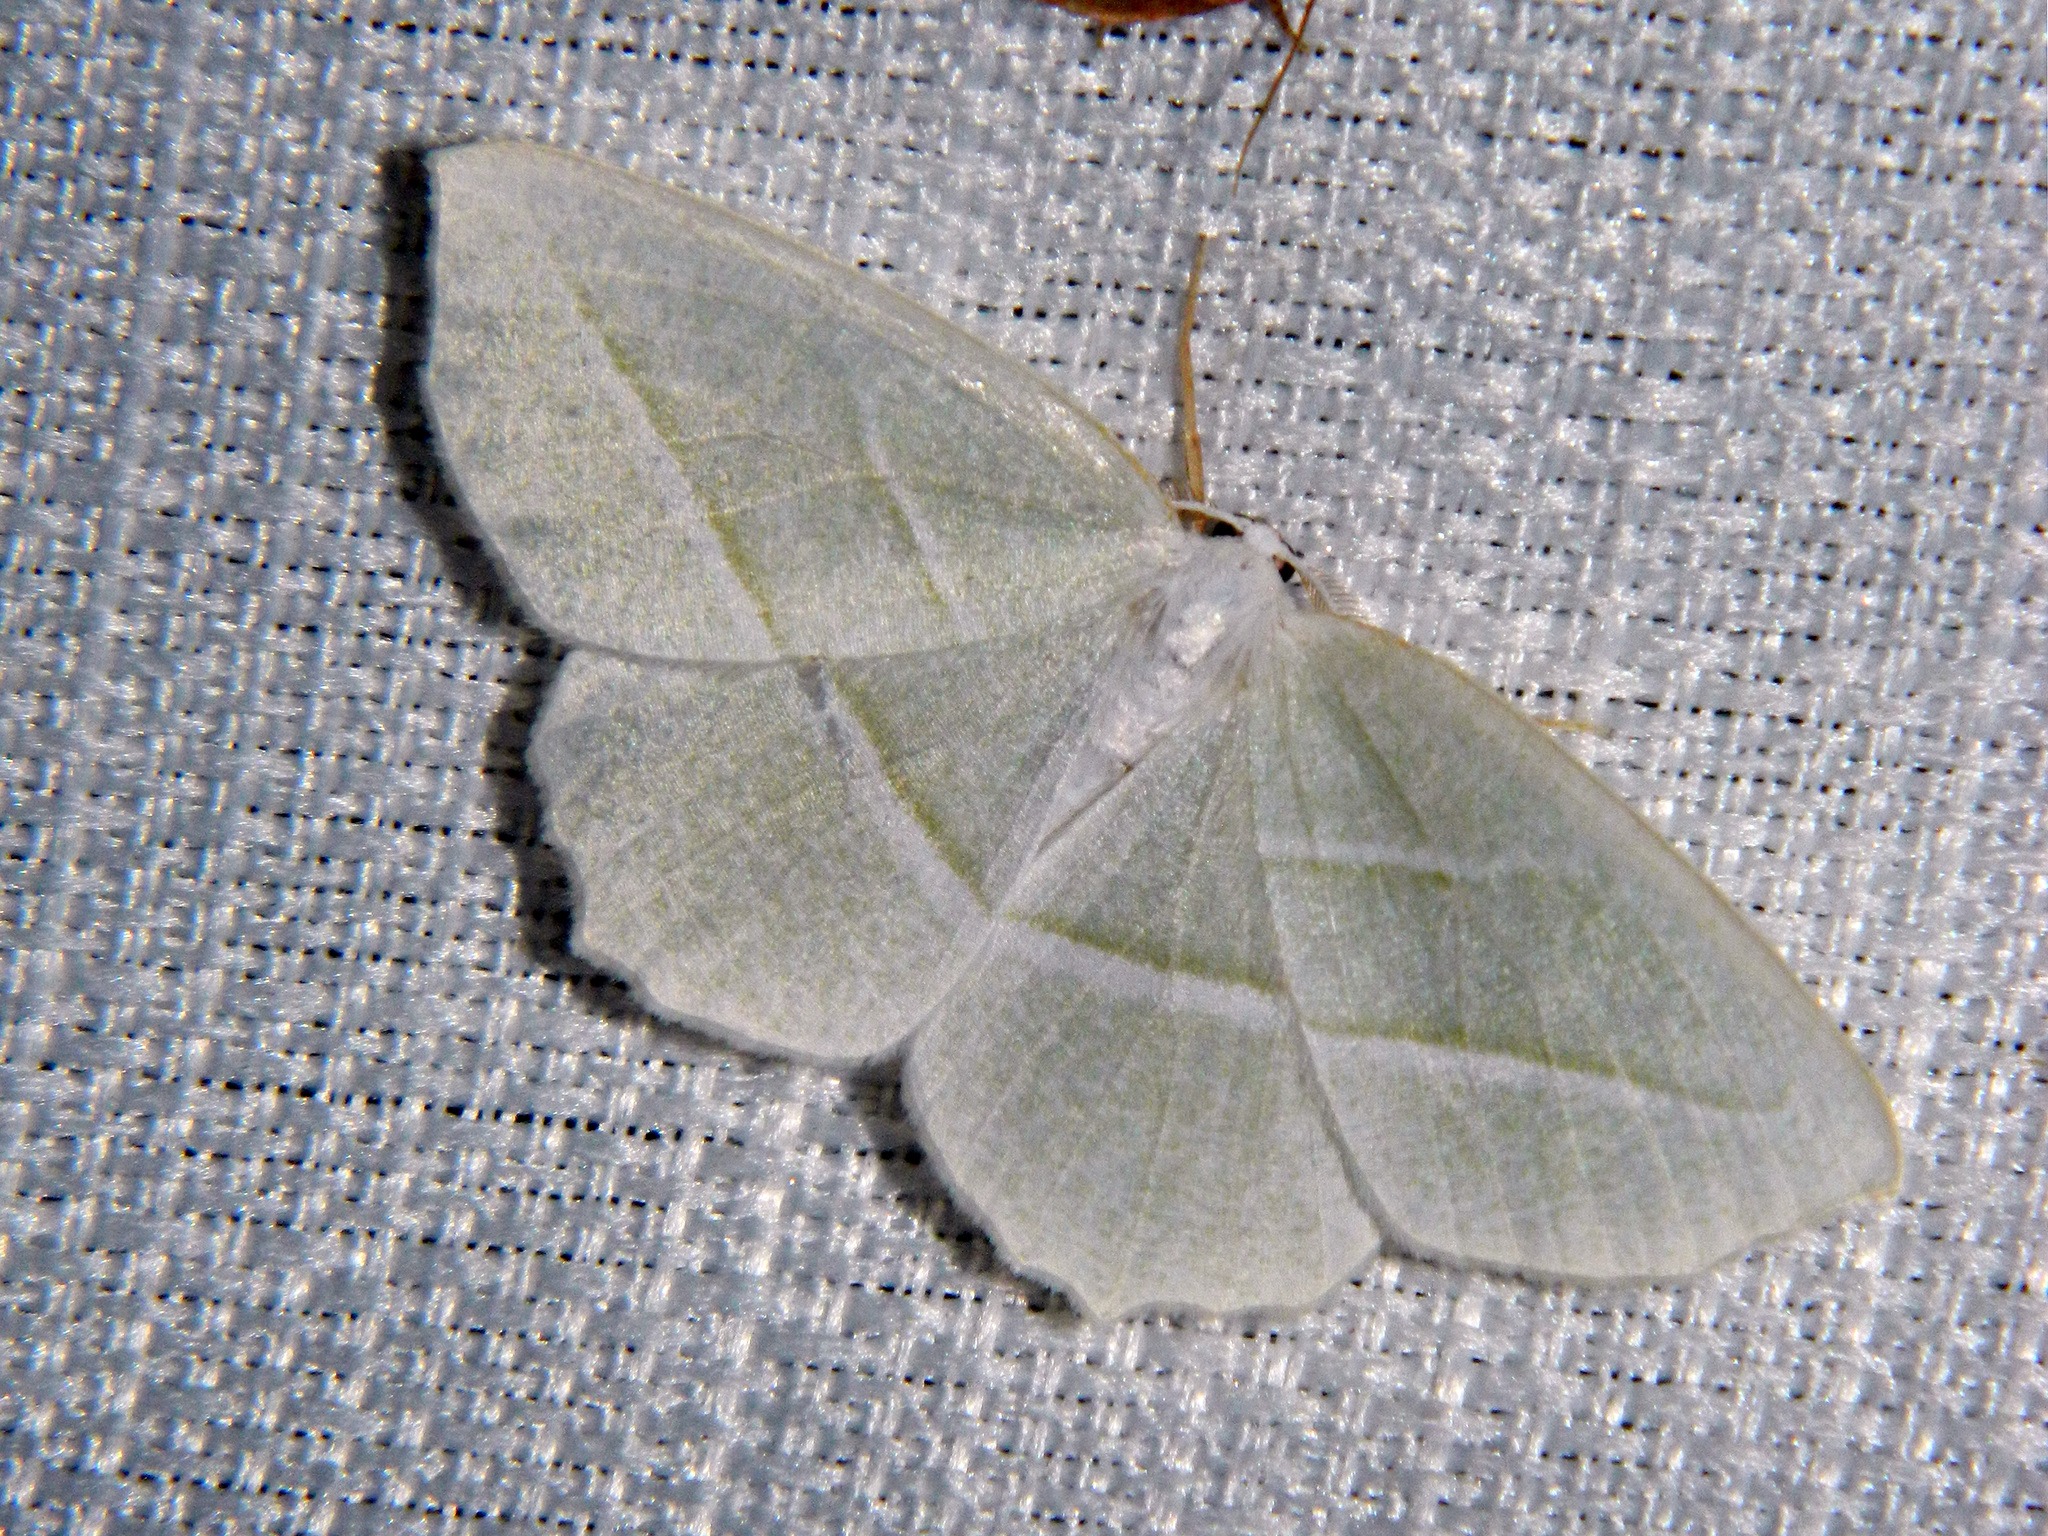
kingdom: Animalia
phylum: Arthropoda
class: Insecta
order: Lepidoptera
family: Geometridae
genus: Campaea
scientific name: Campaea perlata
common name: Fringed looper
